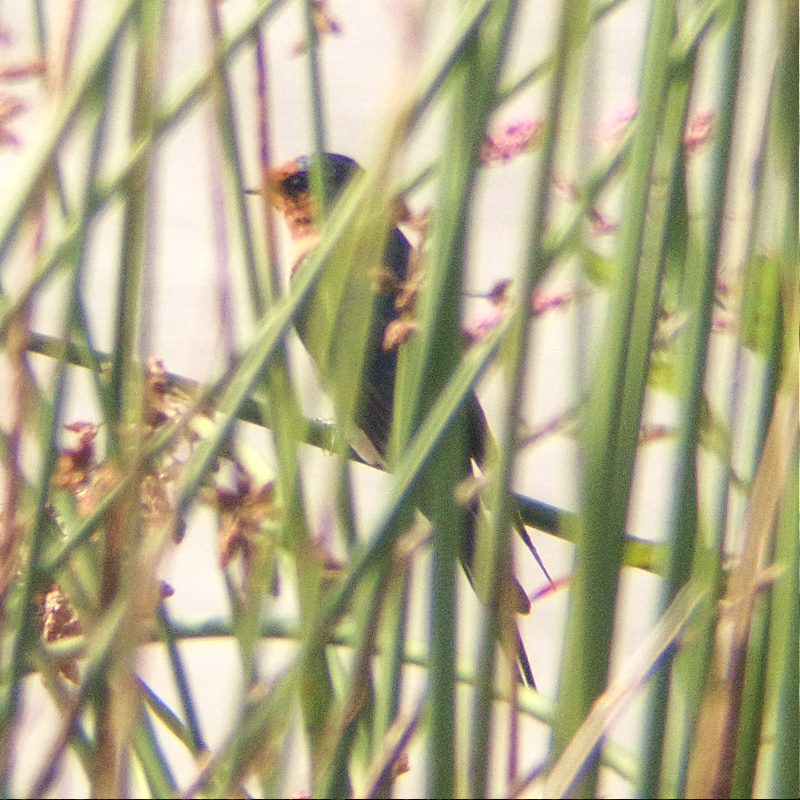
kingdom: Animalia
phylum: Chordata
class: Aves
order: Passeriformes
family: Hirundinidae
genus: Hirundo
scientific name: Hirundo neoxena
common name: Welcome swallow
